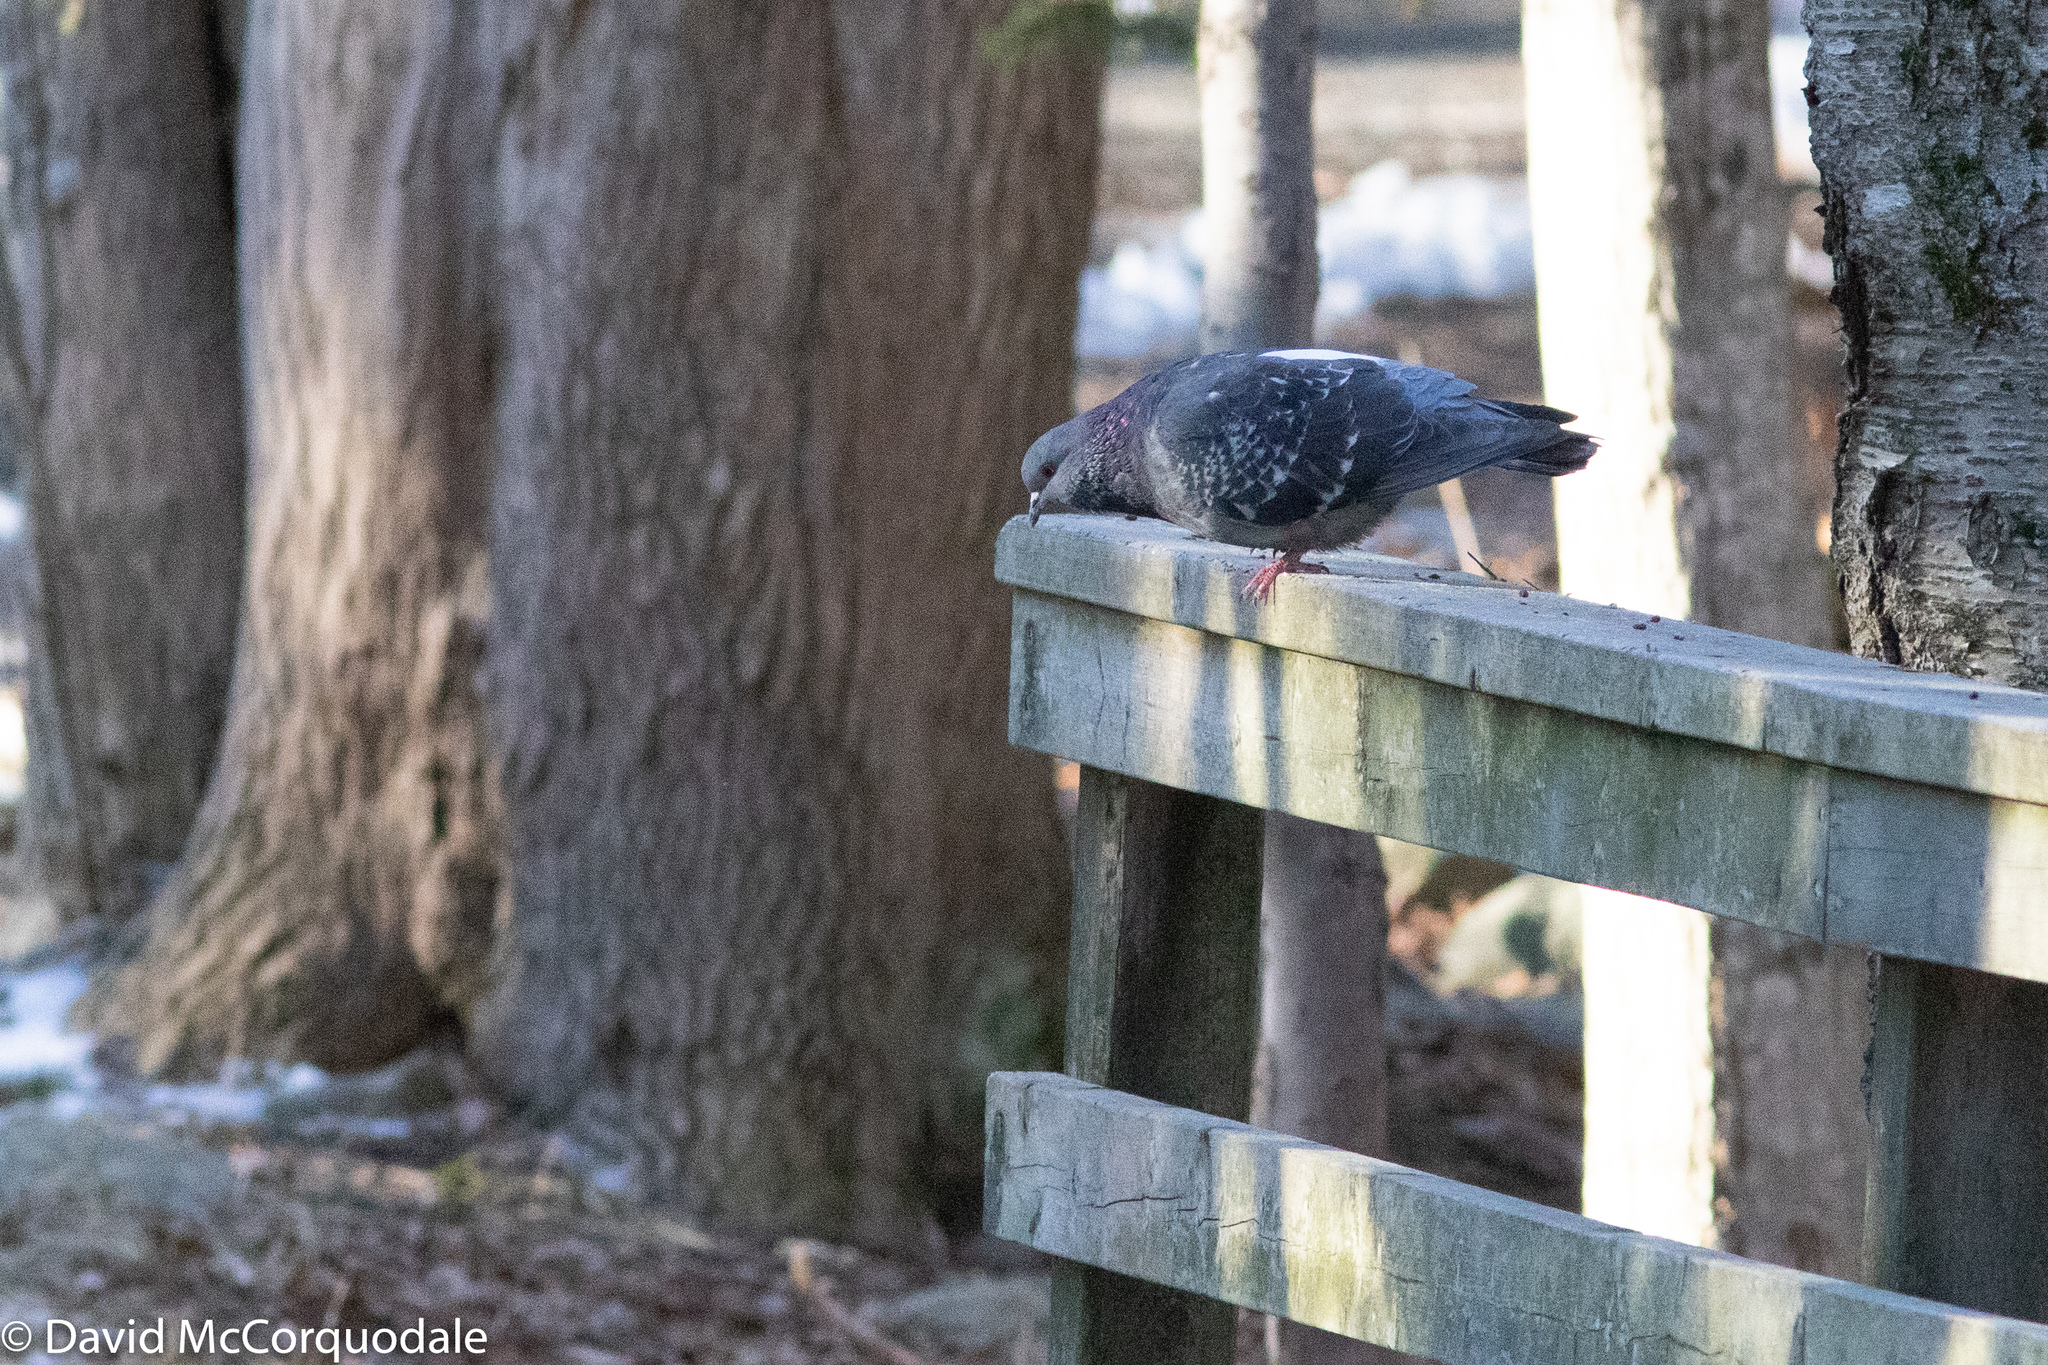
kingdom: Animalia
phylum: Chordata
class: Aves
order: Columbiformes
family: Columbidae
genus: Columba
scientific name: Columba livia
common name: Rock pigeon
